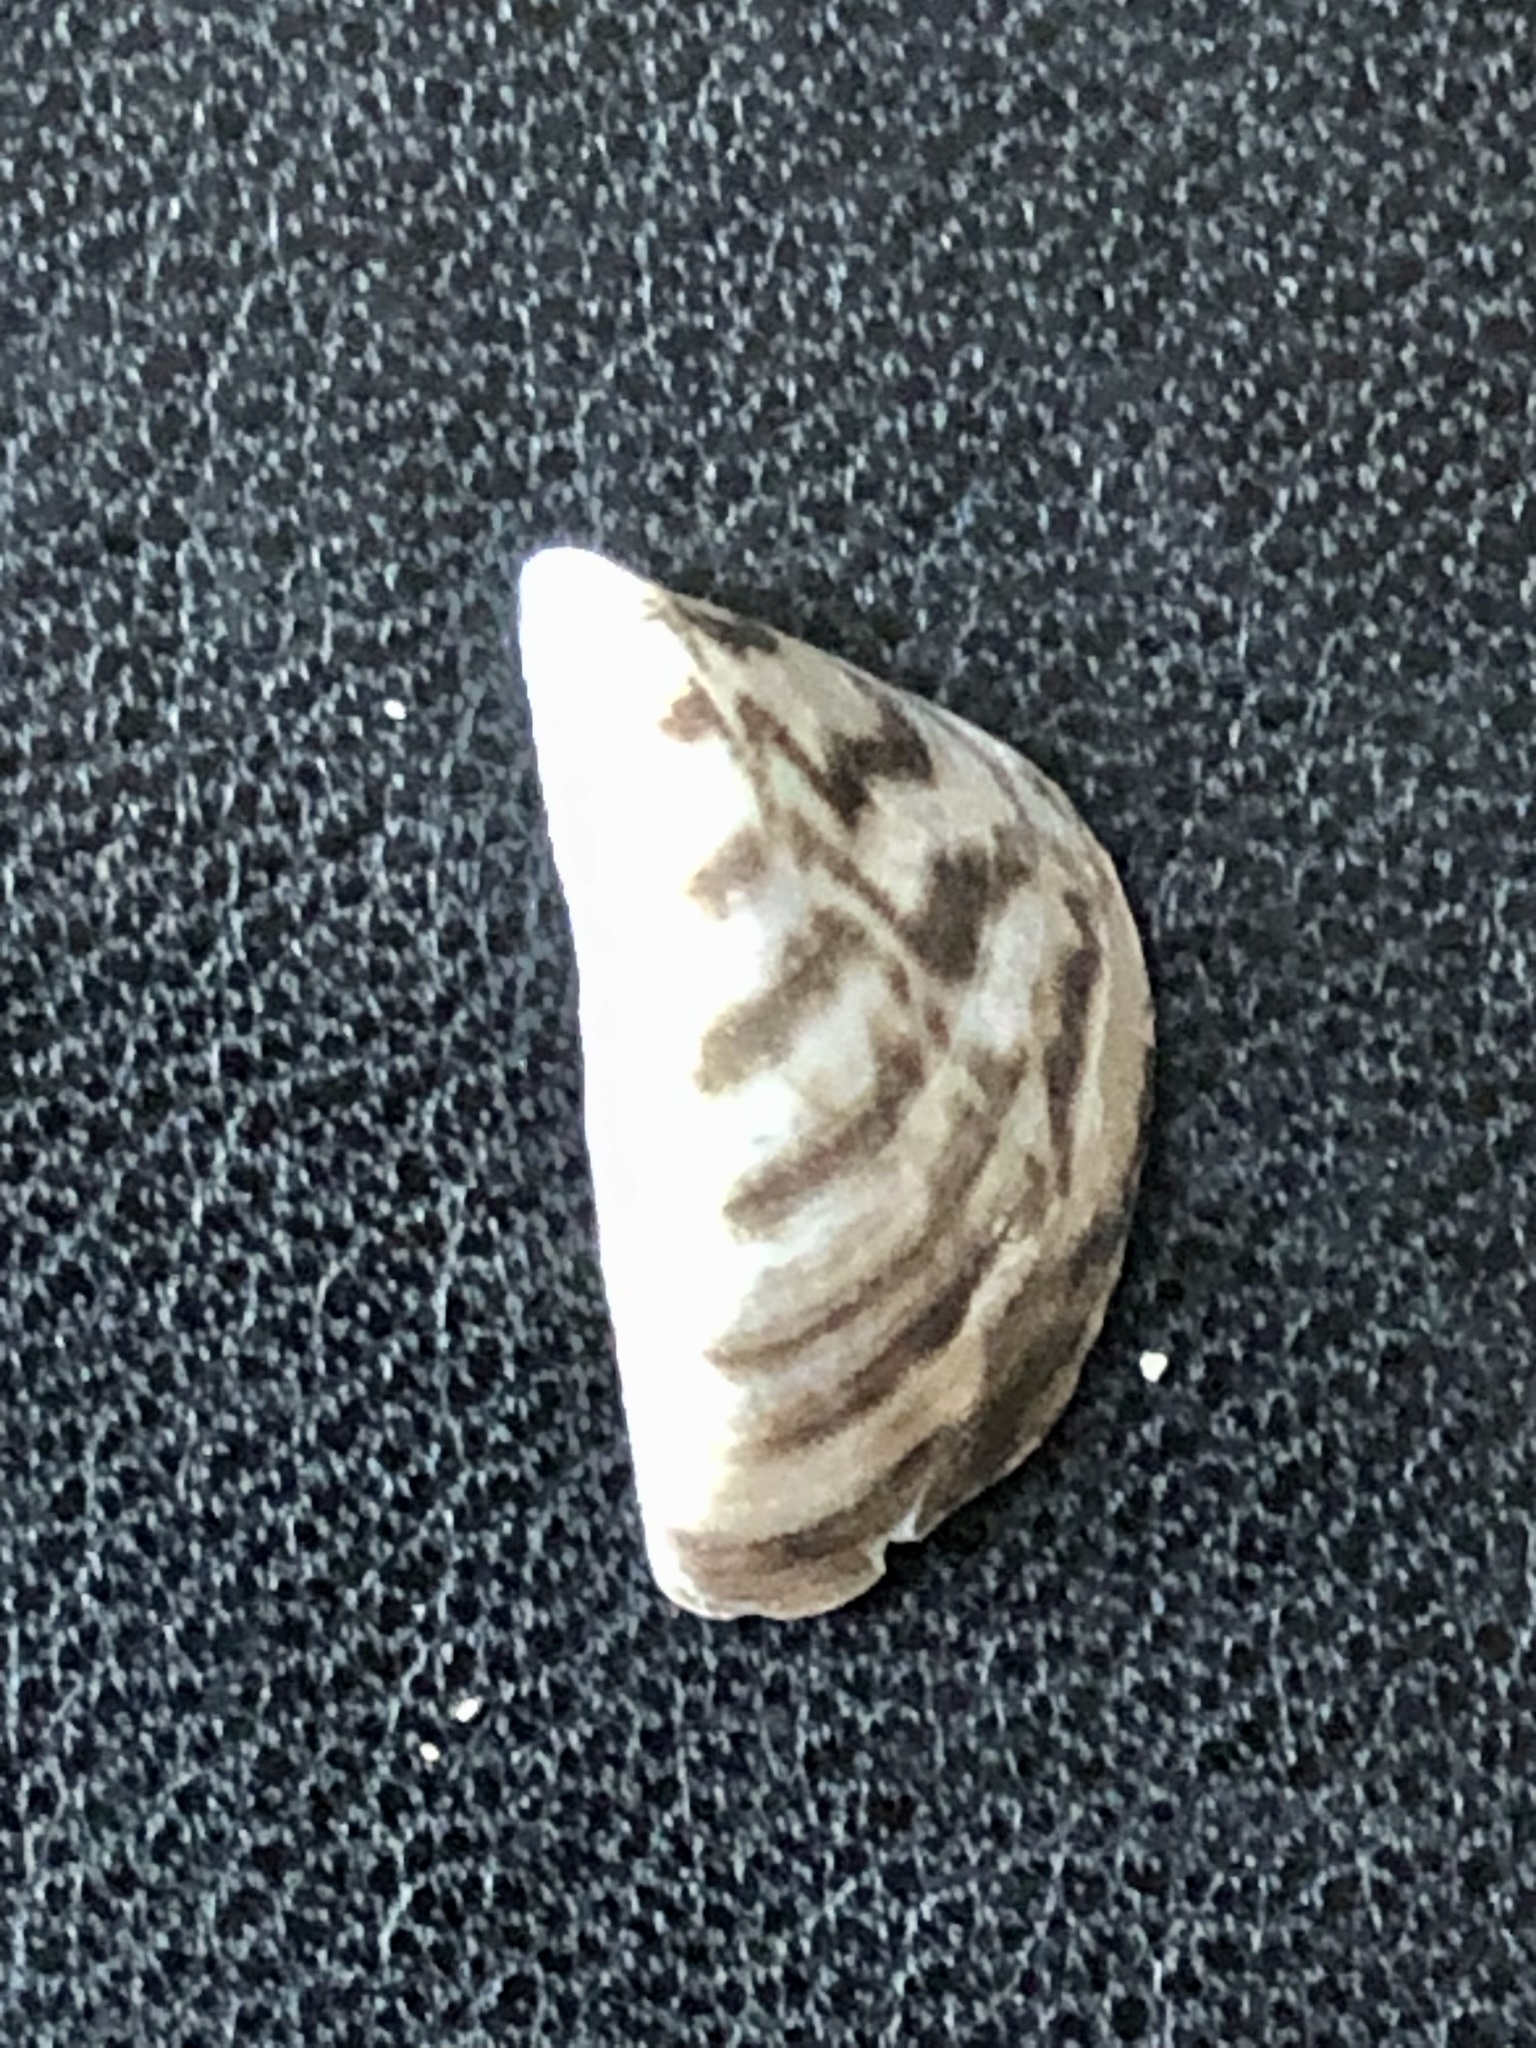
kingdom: Animalia
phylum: Mollusca
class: Bivalvia
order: Myida
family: Dreissenidae
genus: Dreissena
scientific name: Dreissena polymorpha
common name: Zebra mussel
